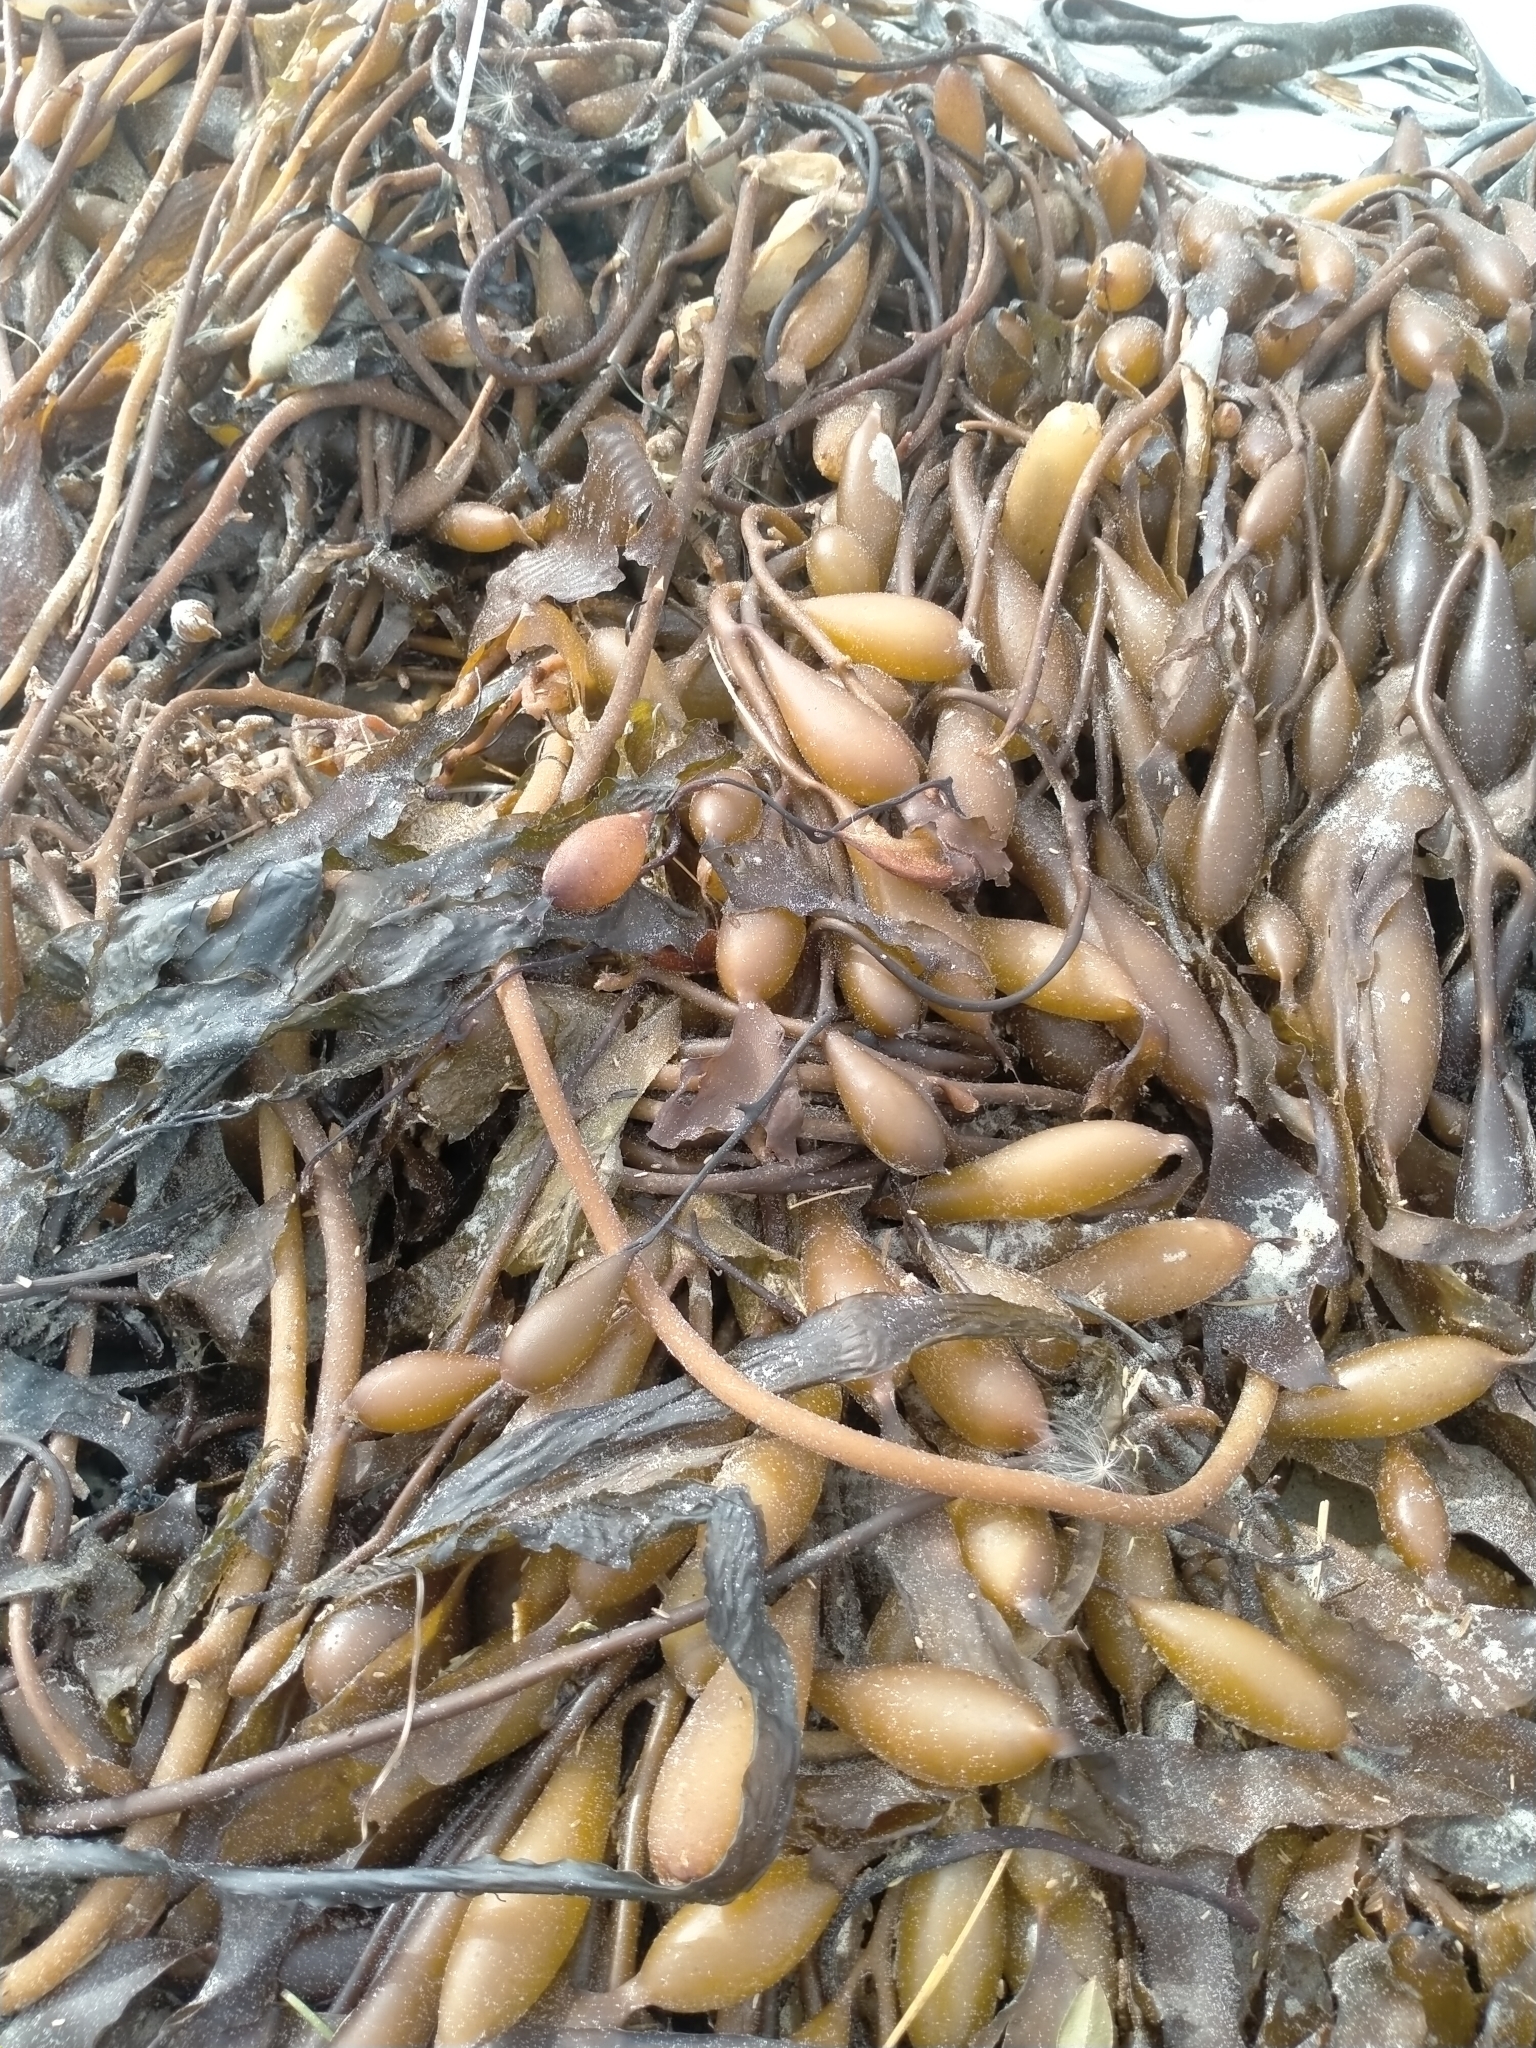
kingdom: Chromista
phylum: Ochrophyta
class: Phaeophyceae
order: Laminariales
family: Laminariaceae
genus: Macrocystis
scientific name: Macrocystis pyrifera
